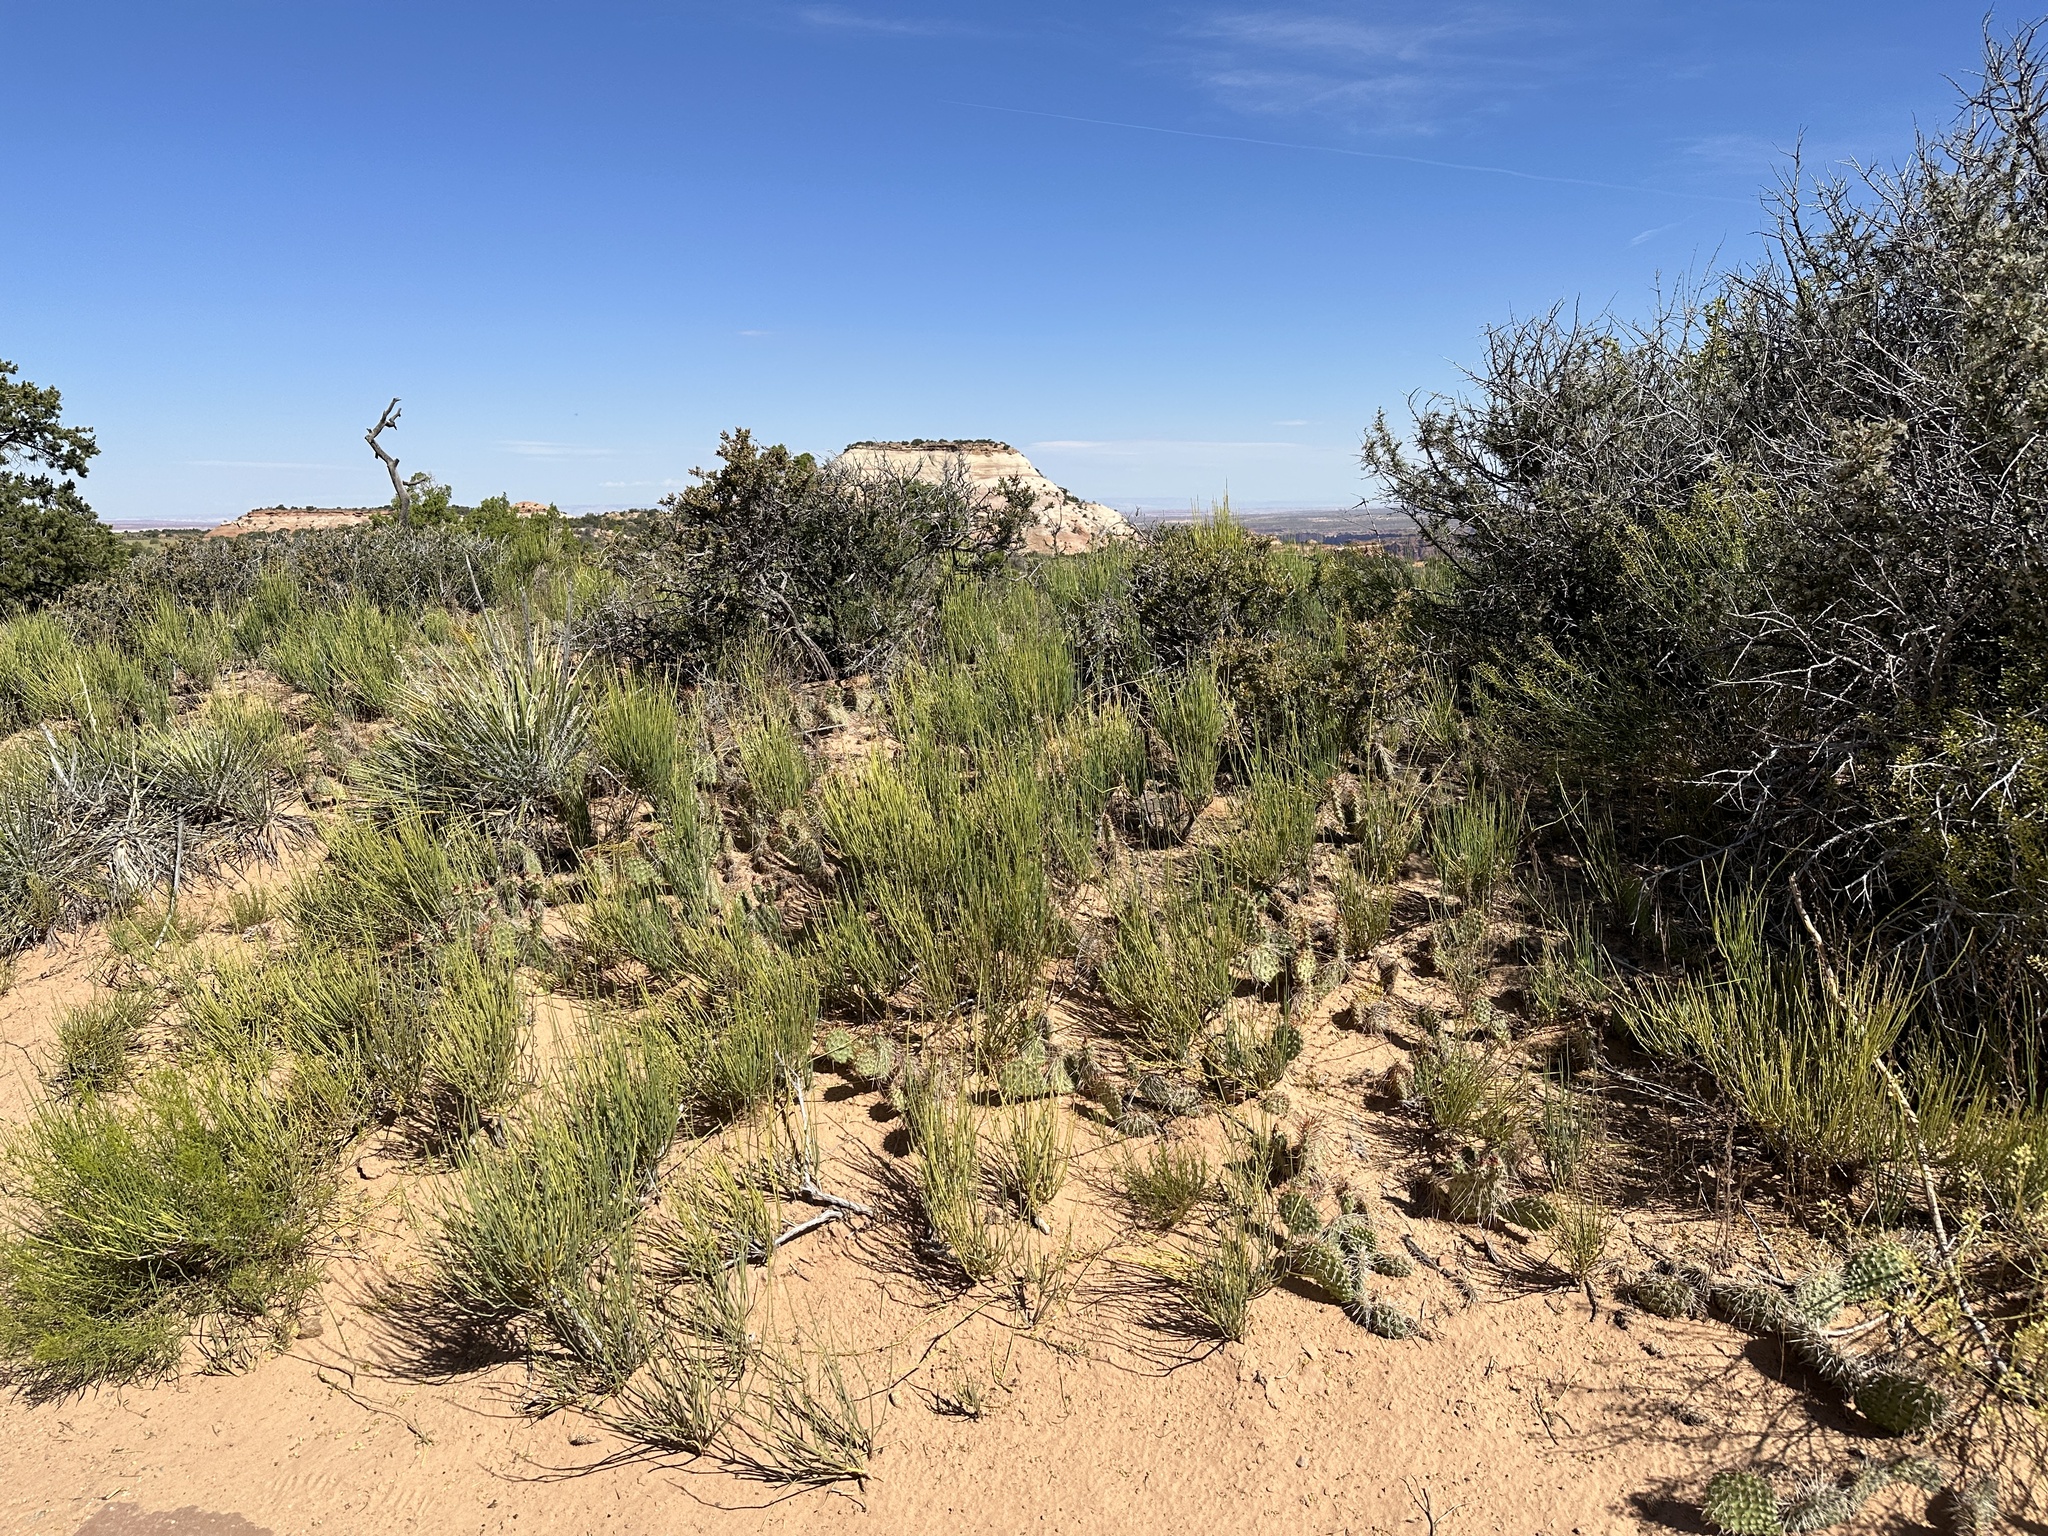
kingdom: Plantae
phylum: Tracheophyta
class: Magnoliopsida
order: Caryophyllales
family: Cactaceae
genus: Opuntia
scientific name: Opuntia polyacantha
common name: Plains prickly-pear
